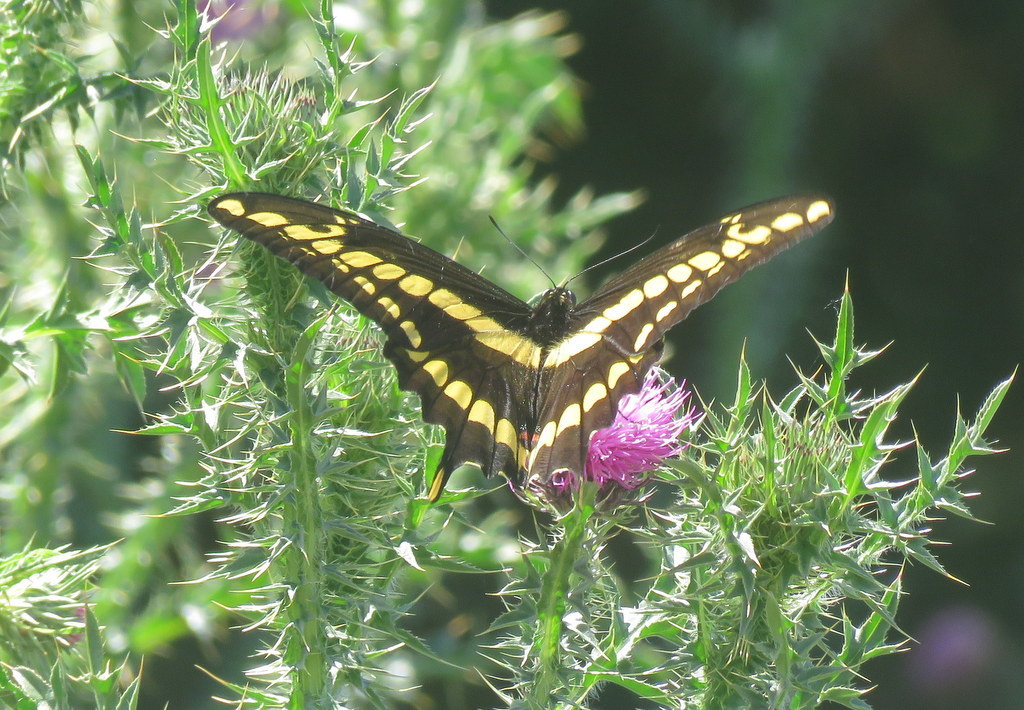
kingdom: Animalia
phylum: Arthropoda
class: Insecta
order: Lepidoptera
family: Papilionidae
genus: Papilio
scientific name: Papilio thoas
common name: King swallowtail
